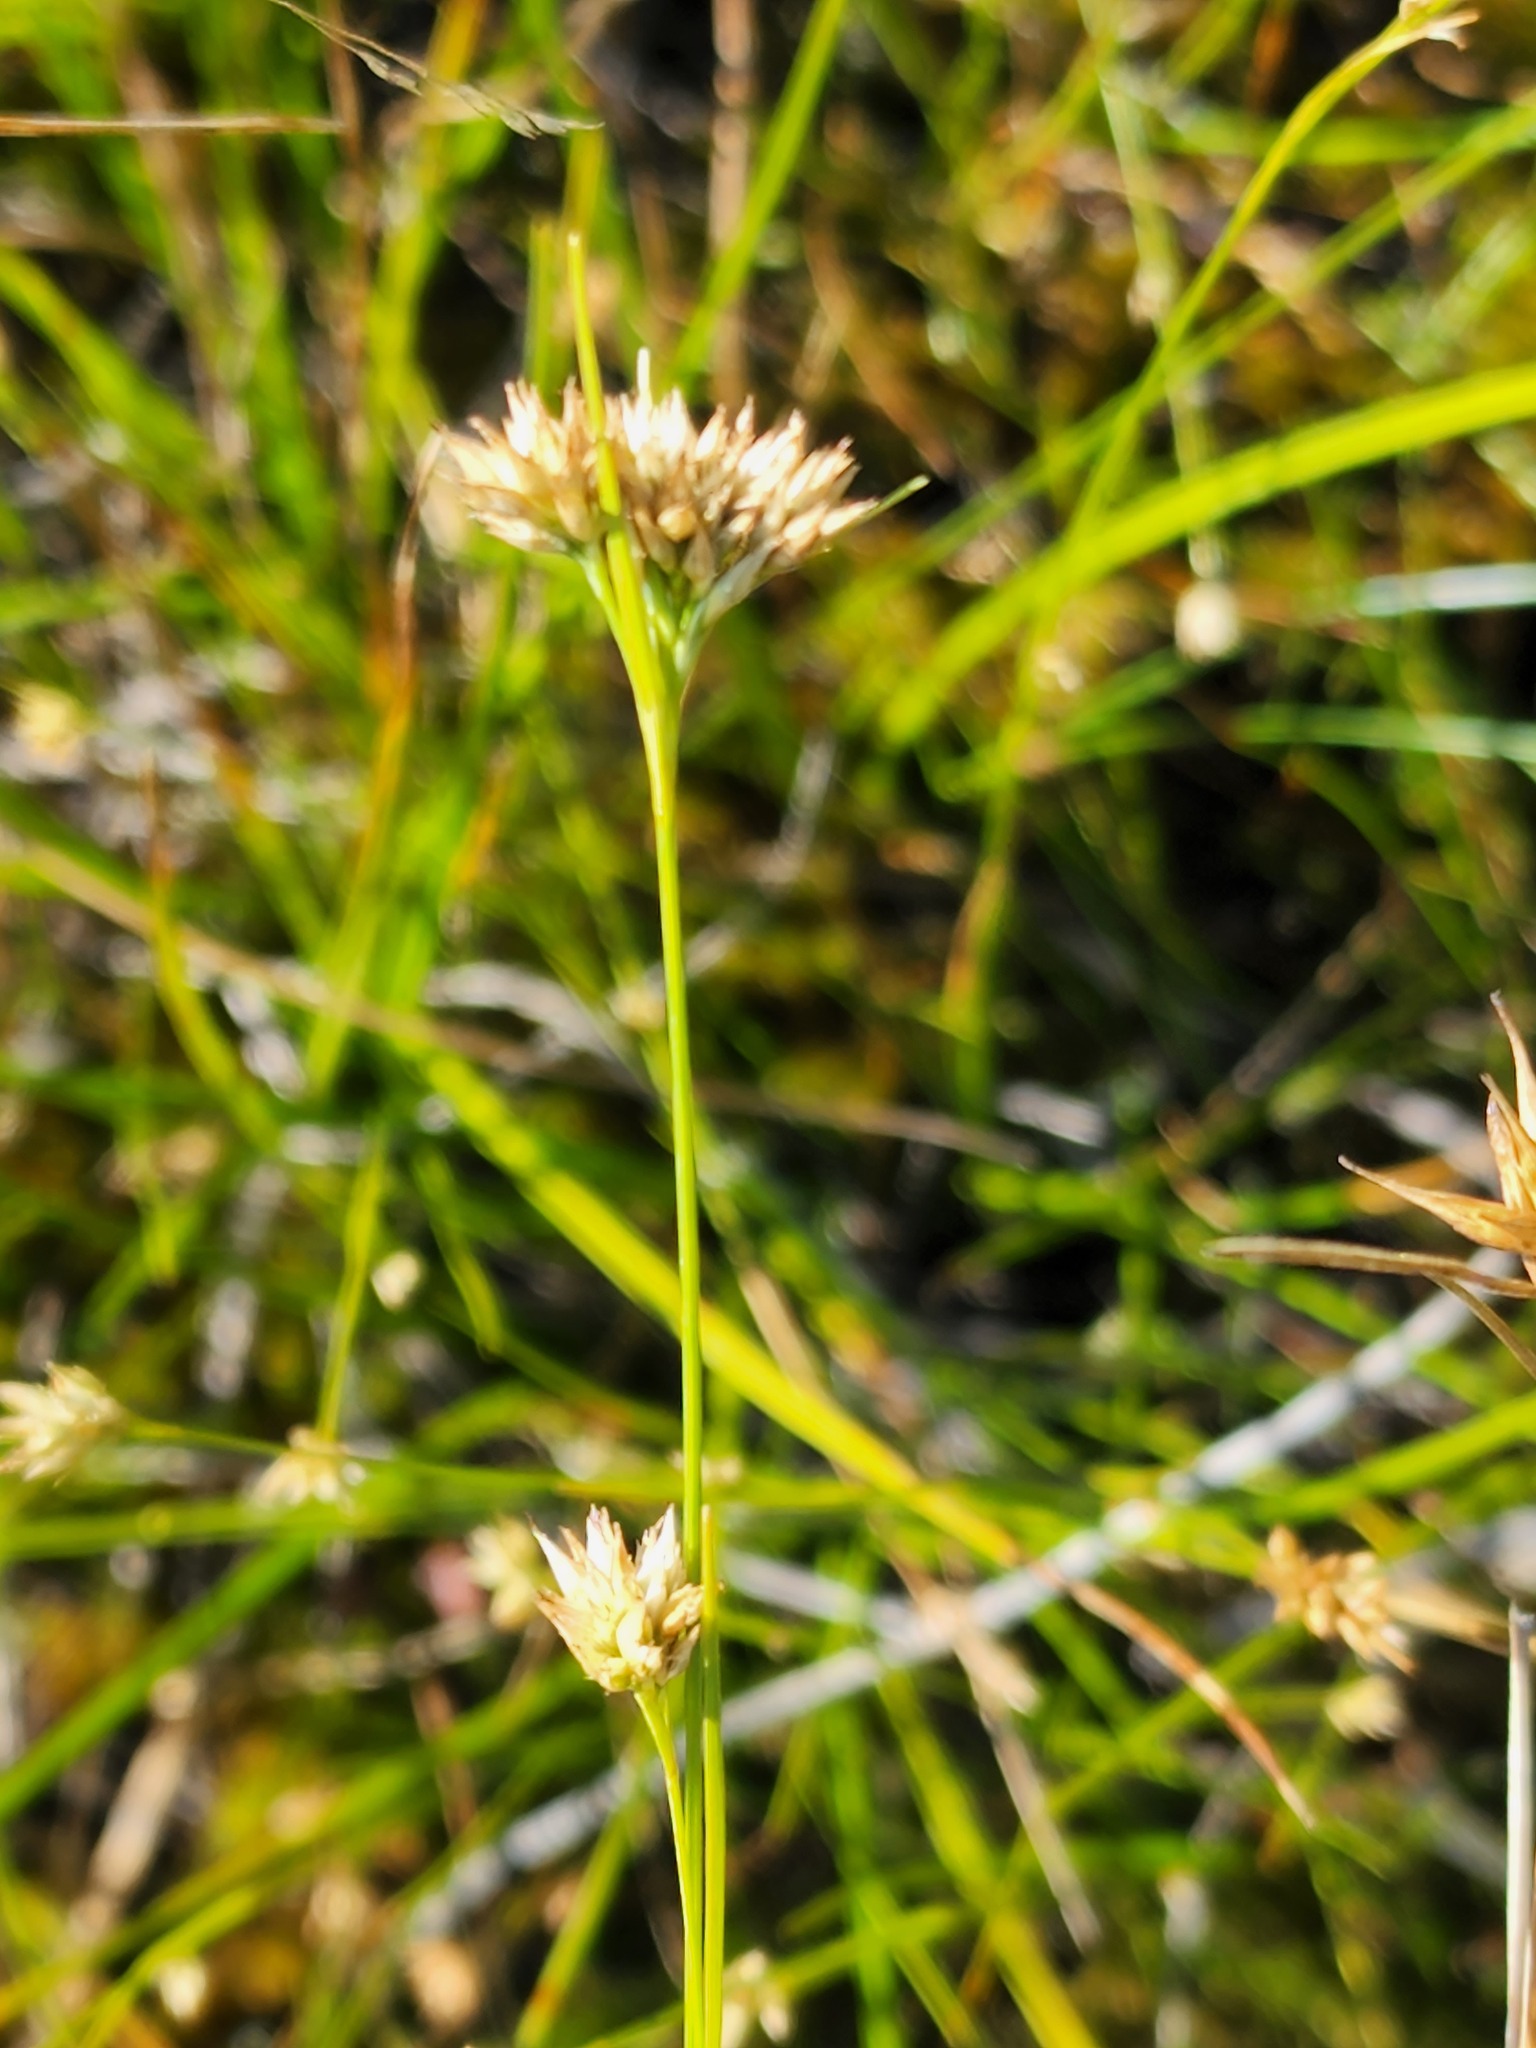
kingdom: Plantae
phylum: Tracheophyta
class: Liliopsida
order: Poales
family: Cyperaceae
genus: Rhynchospora
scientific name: Rhynchospora alba
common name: White beak-sedge
